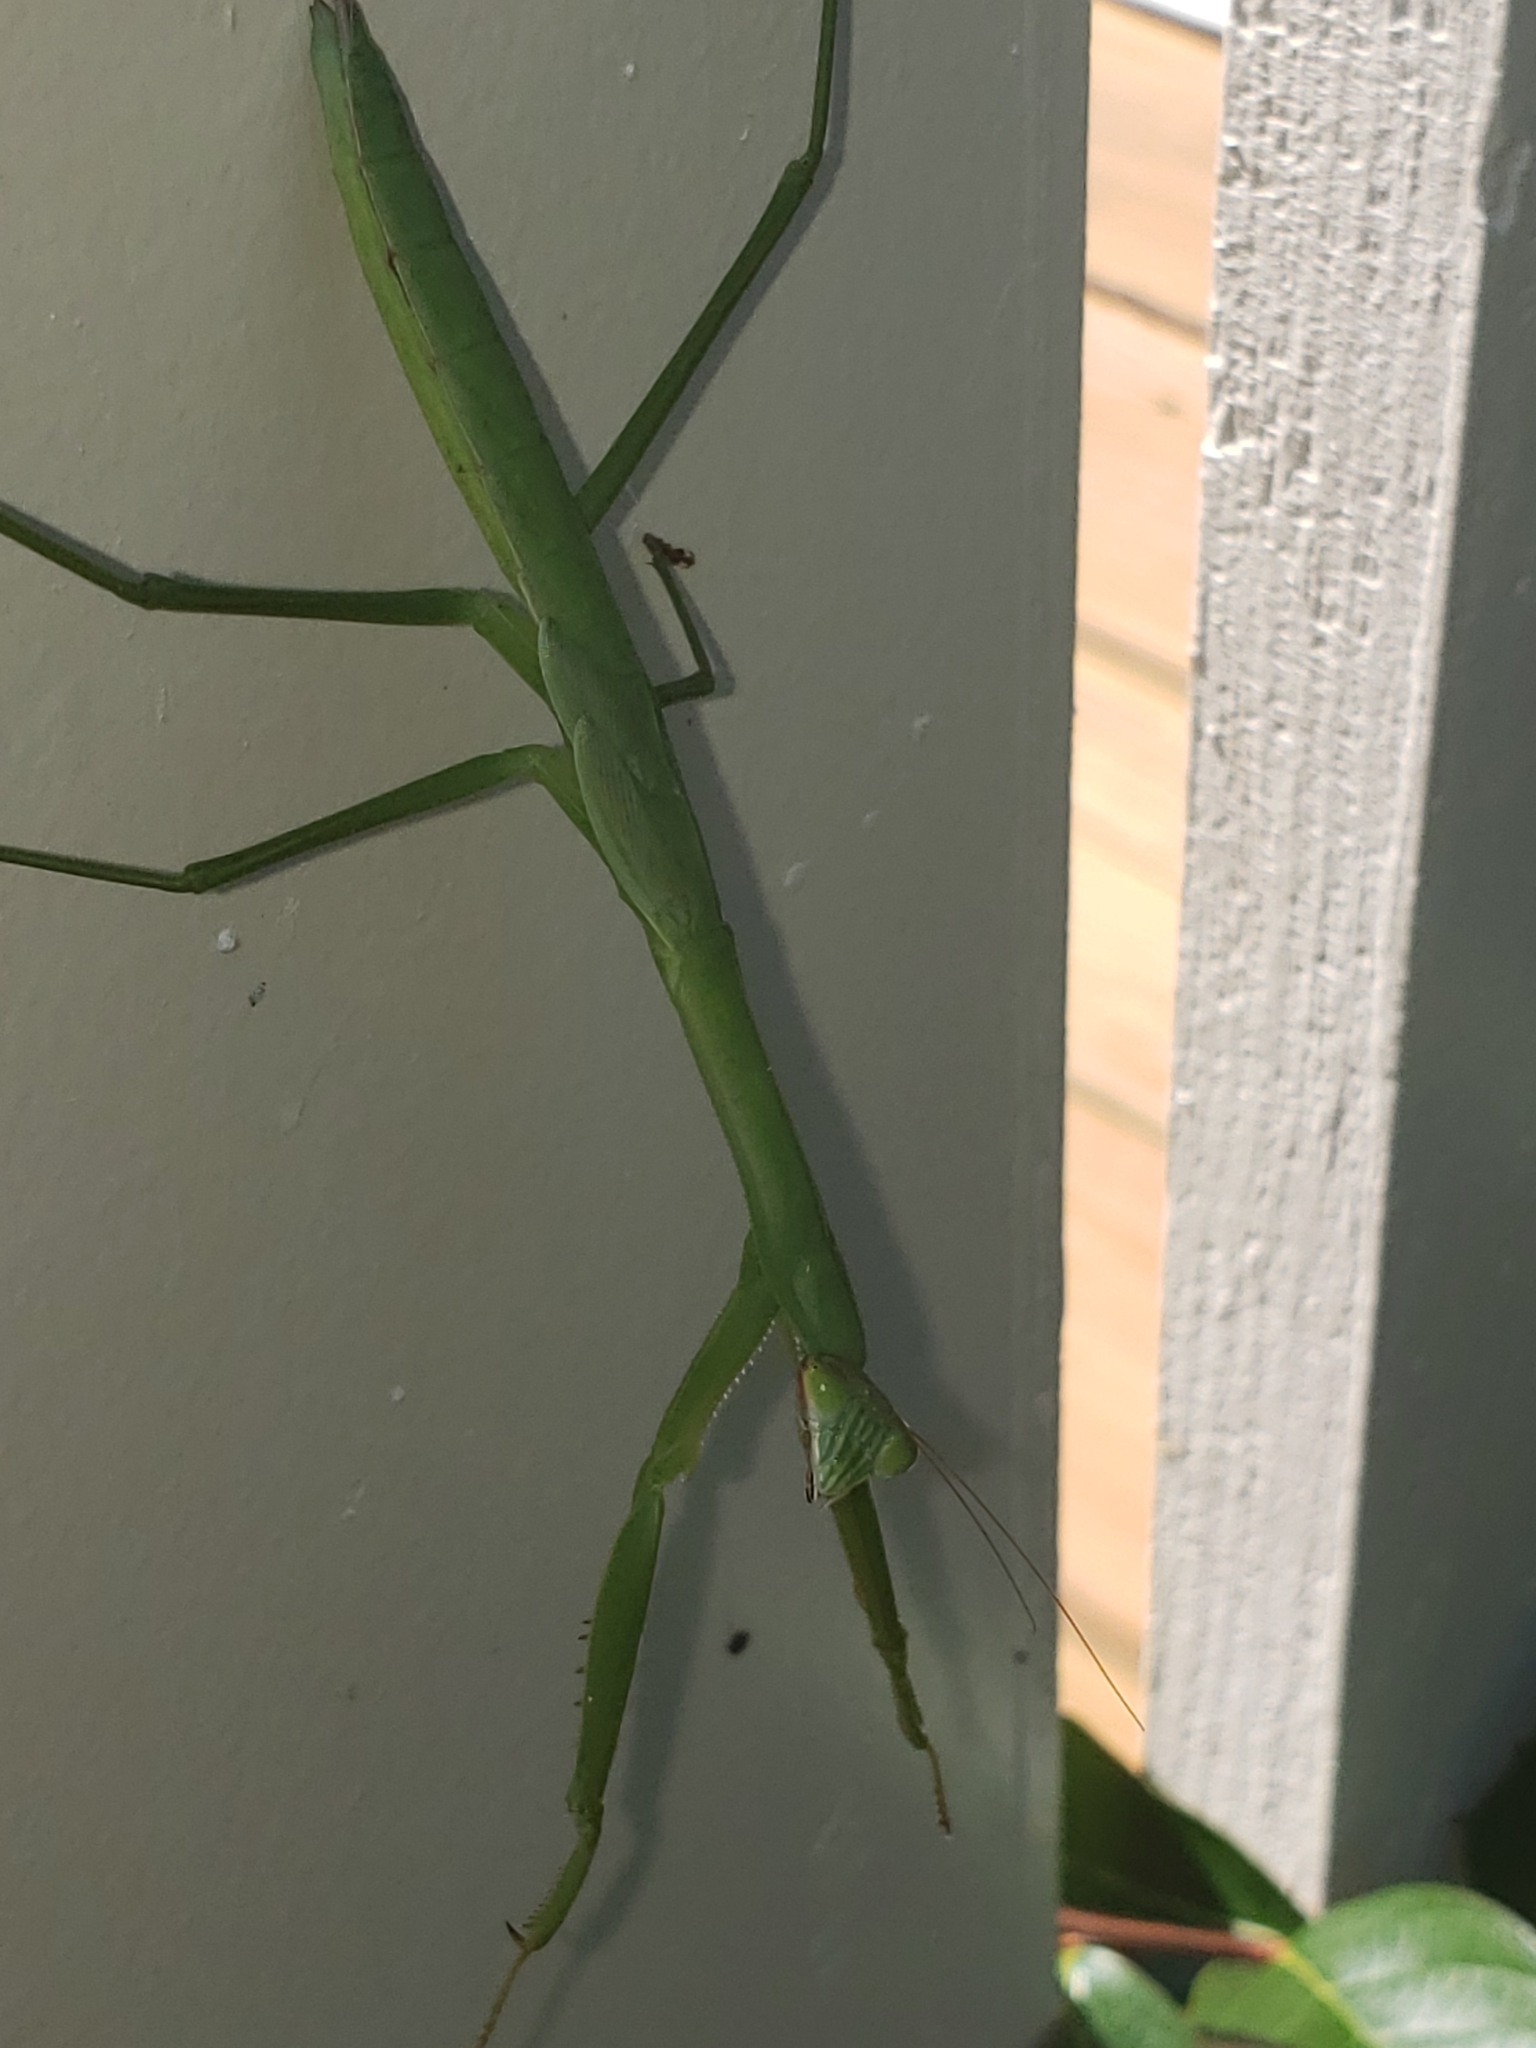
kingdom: Animalia
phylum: Arthropoda
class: Insecta
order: Mantodea
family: Mantidae
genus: Tenodera
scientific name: Tenodera sinensis
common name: Chinese mantis
